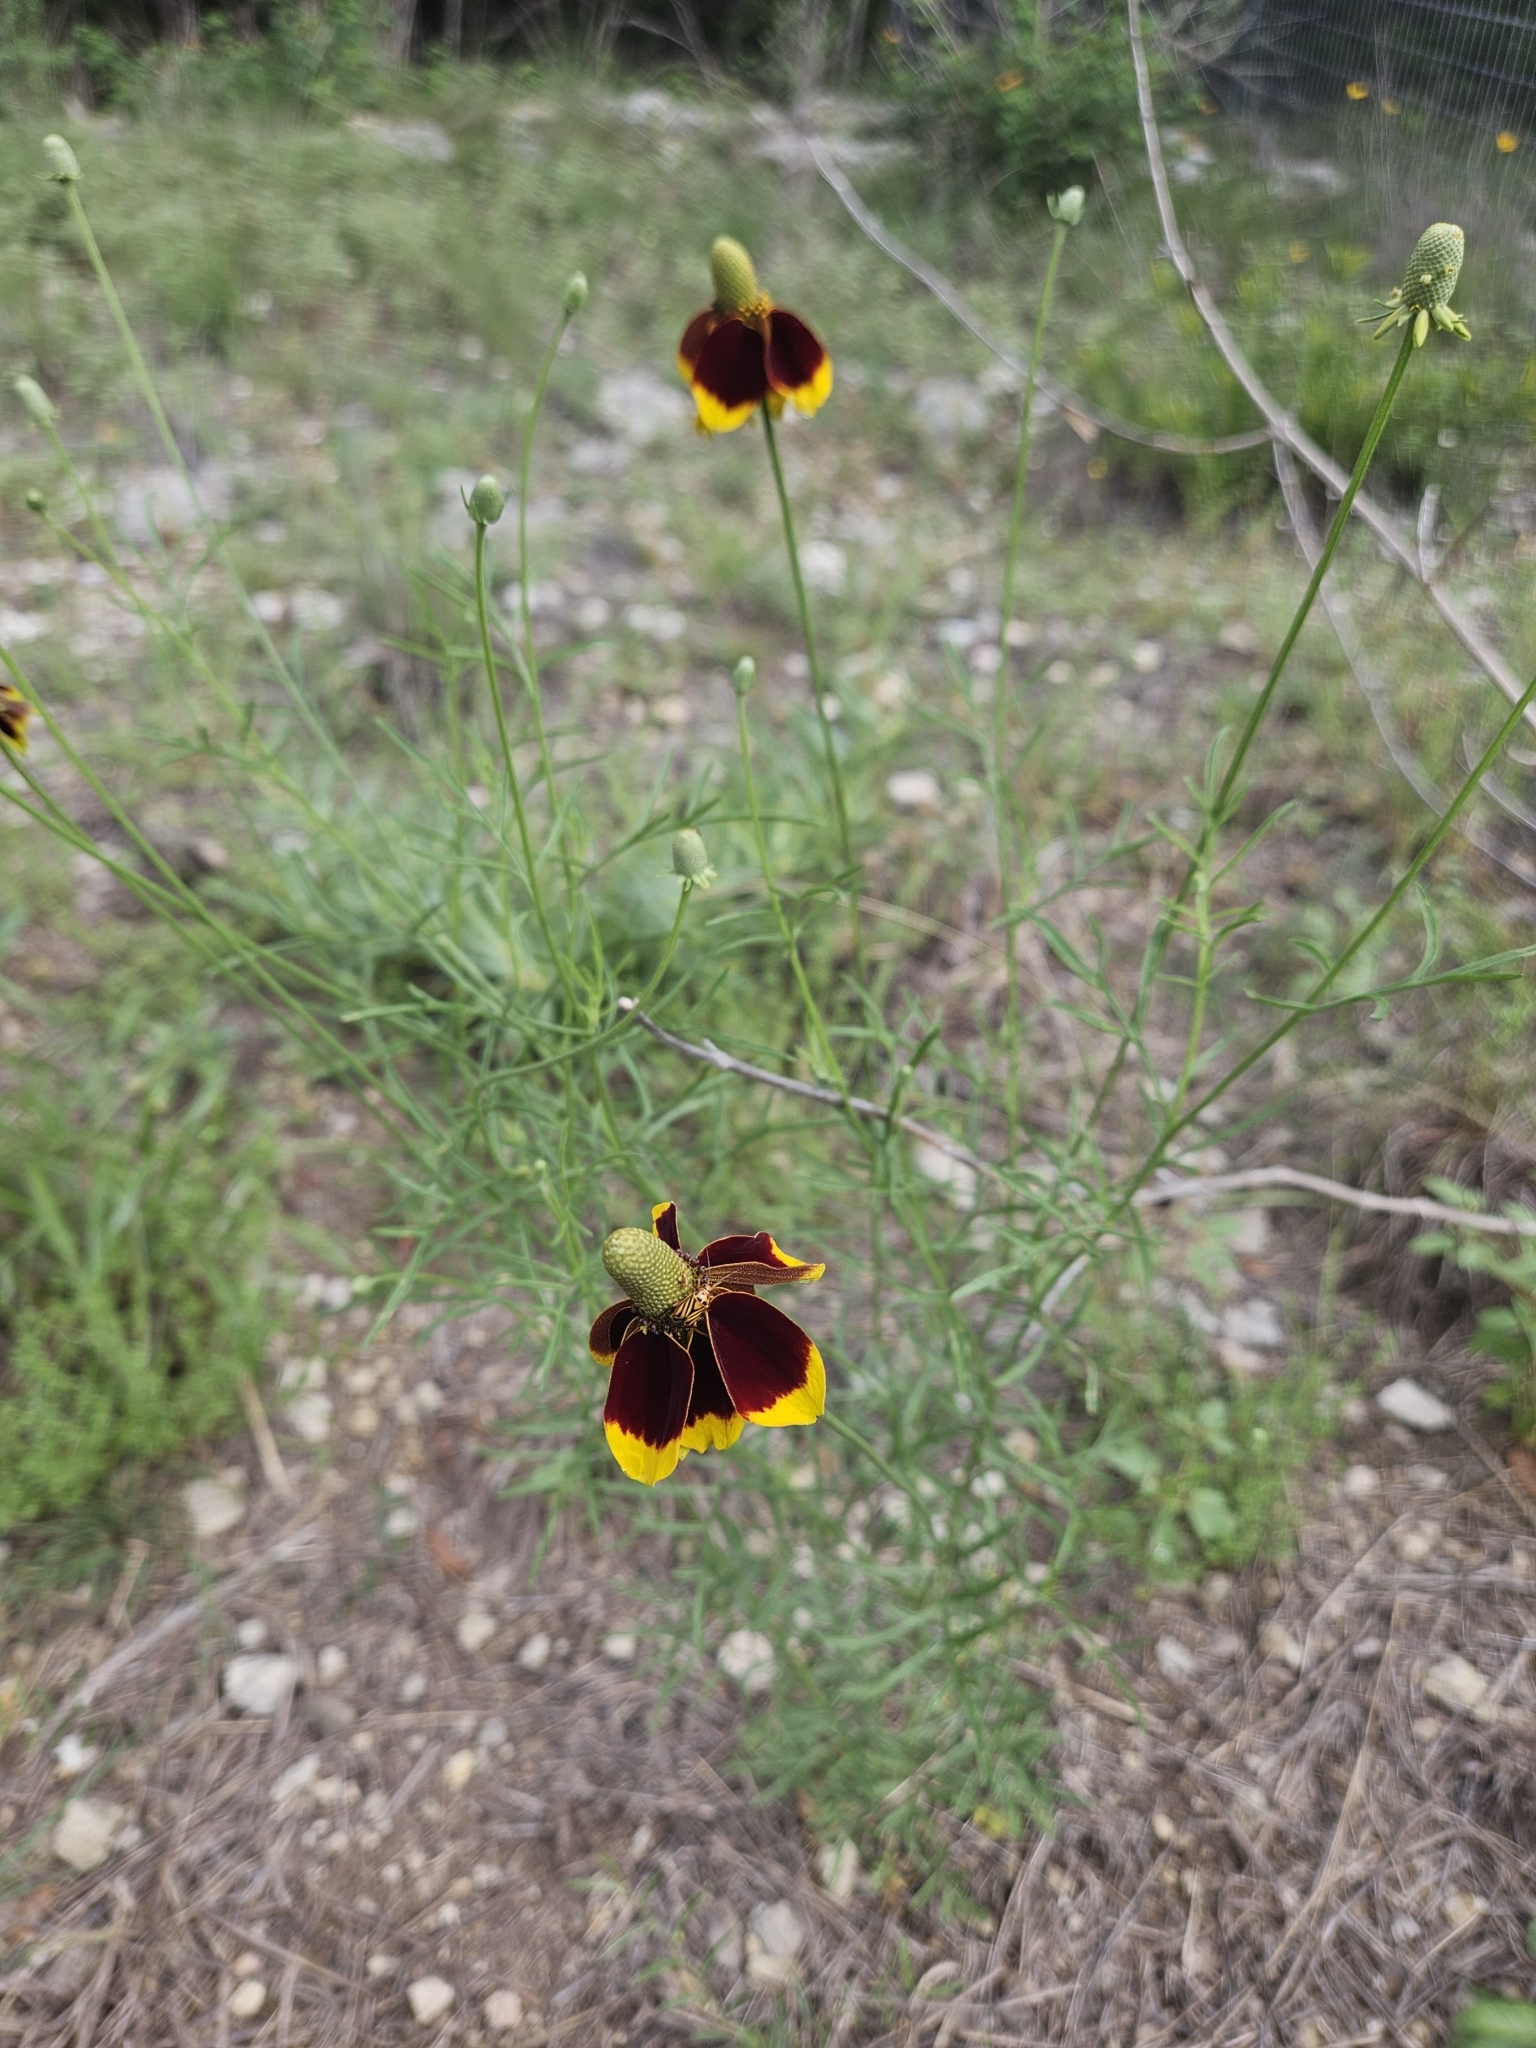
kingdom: Plantae
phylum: Tracheophyta
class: Magnoliopsida
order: Asterales
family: Asteraceae
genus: Ratibida
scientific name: Ratibida columnifera
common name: Prairie coneflower
